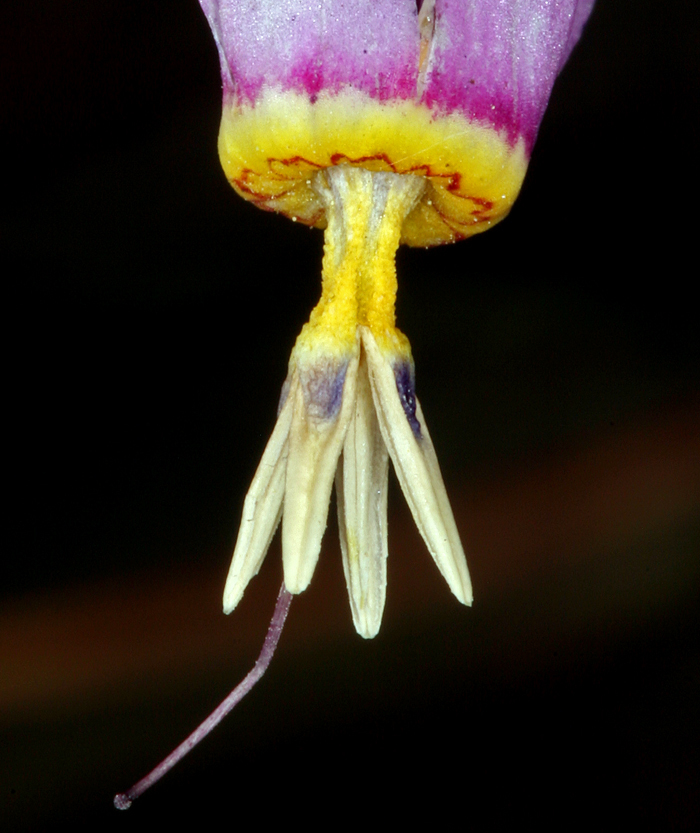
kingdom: Plantae
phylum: Tracheophyta
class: Magnoliopsida
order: Ericales
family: Primulaceae
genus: Dodecatheon
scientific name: Dodecatheon pulchellum
